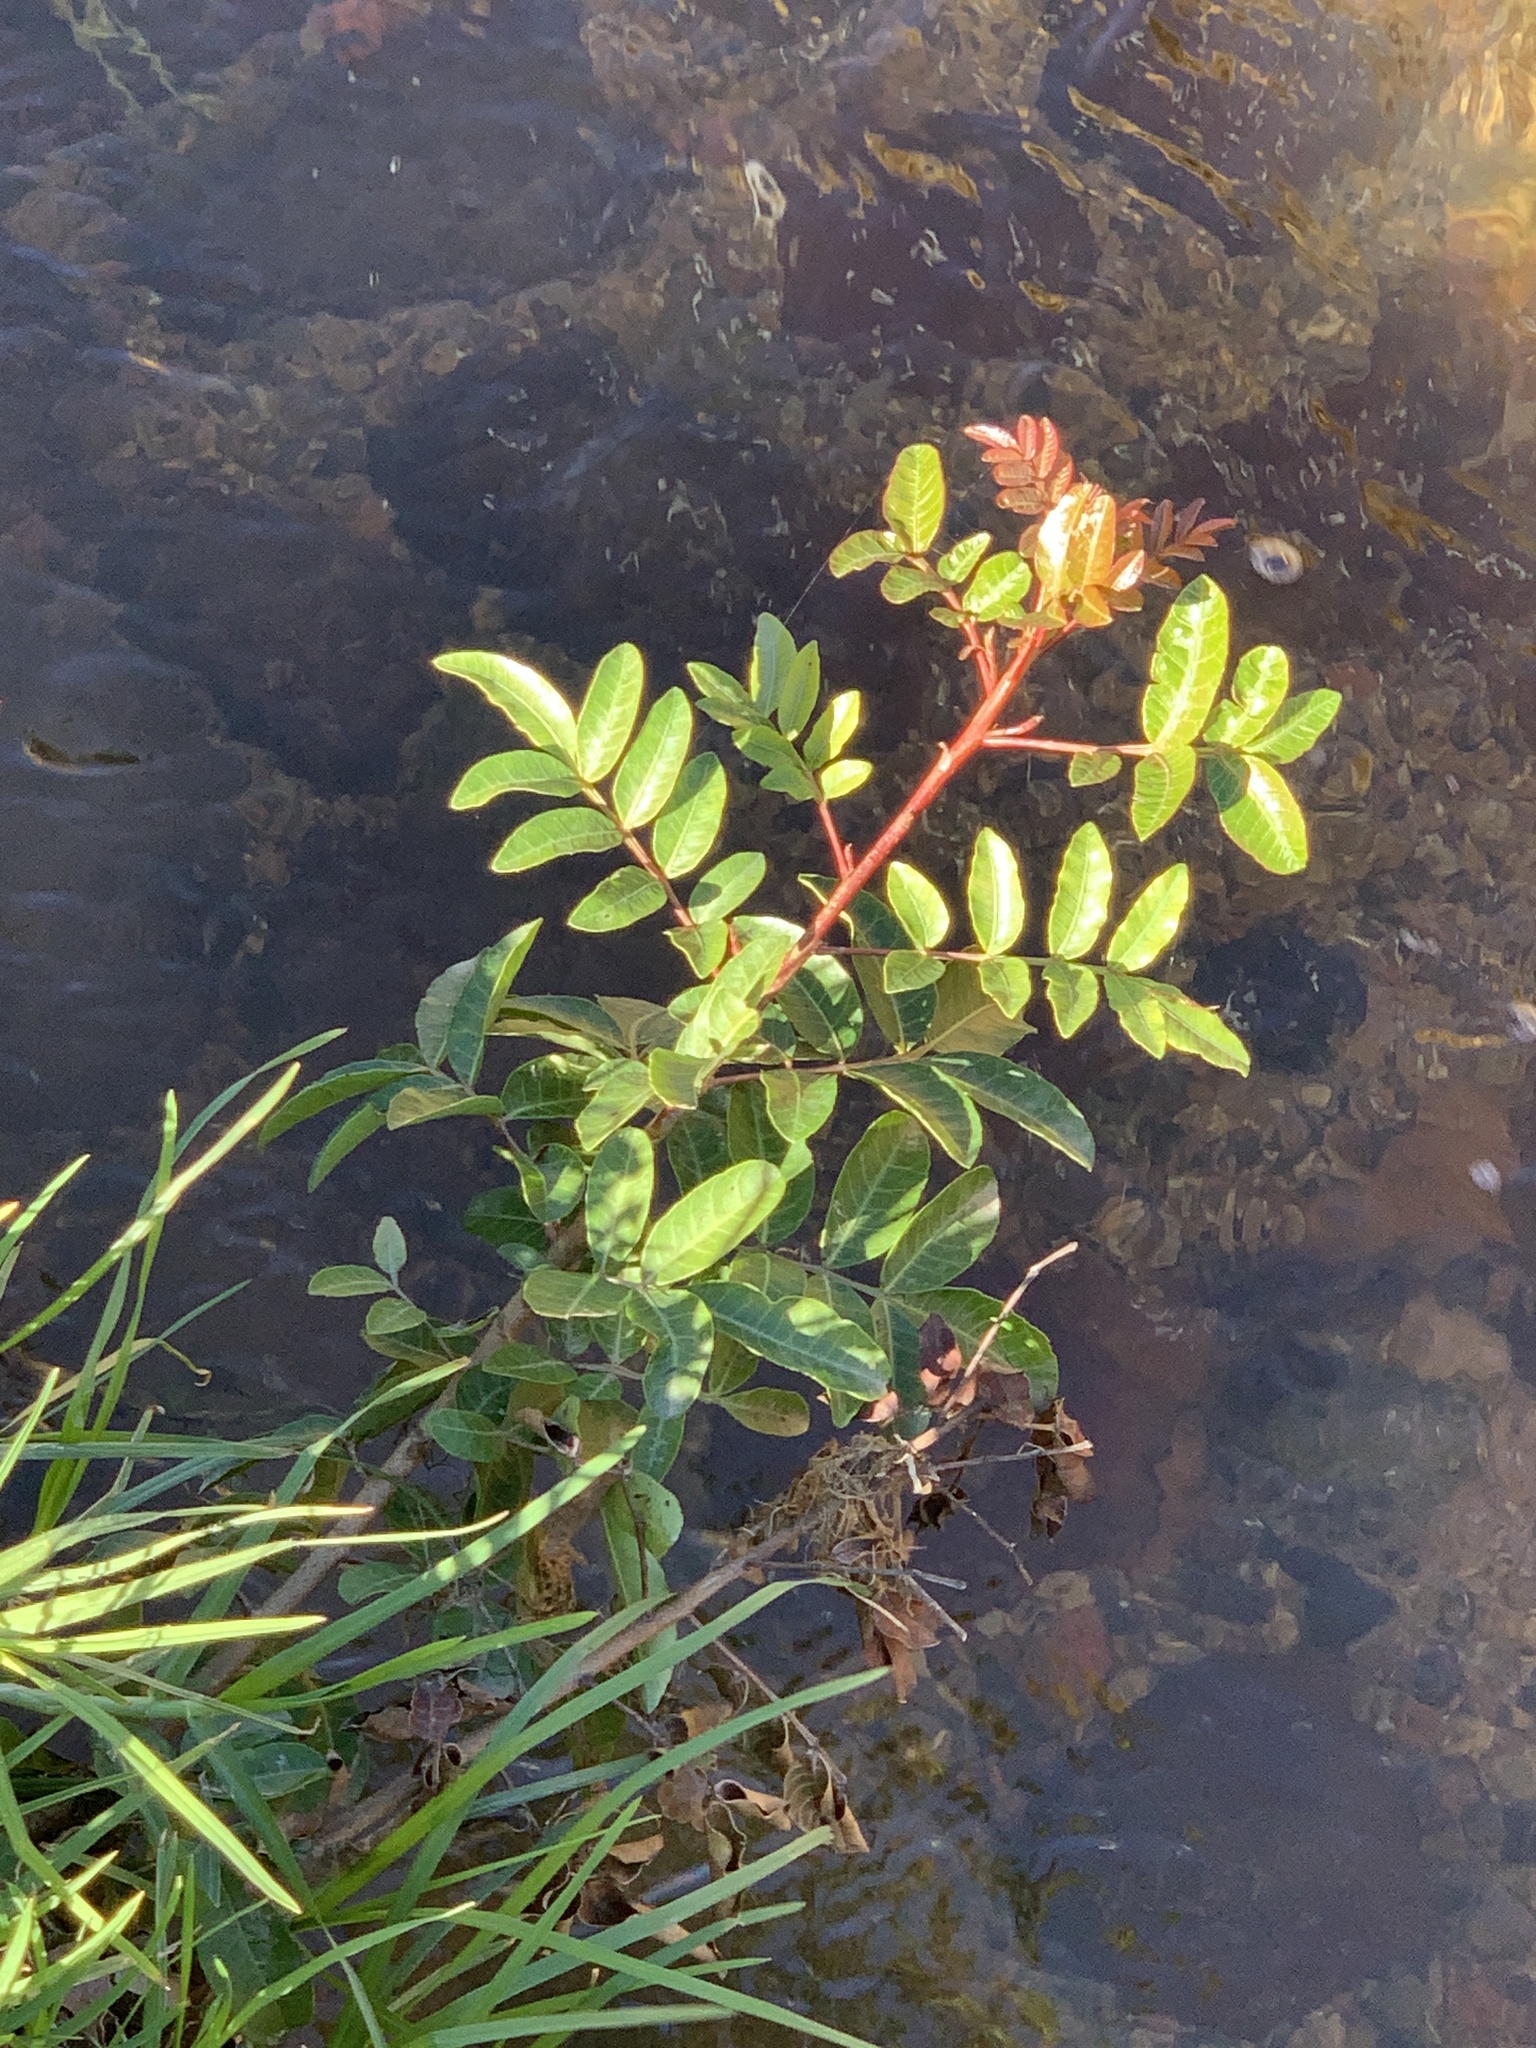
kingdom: Plantae
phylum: Tracheophyta
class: Magnoliopsida
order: Sapindales
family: Anacardiaceae
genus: Schinus
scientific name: Schinus terebinthifolia
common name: Brazilian peppertree
